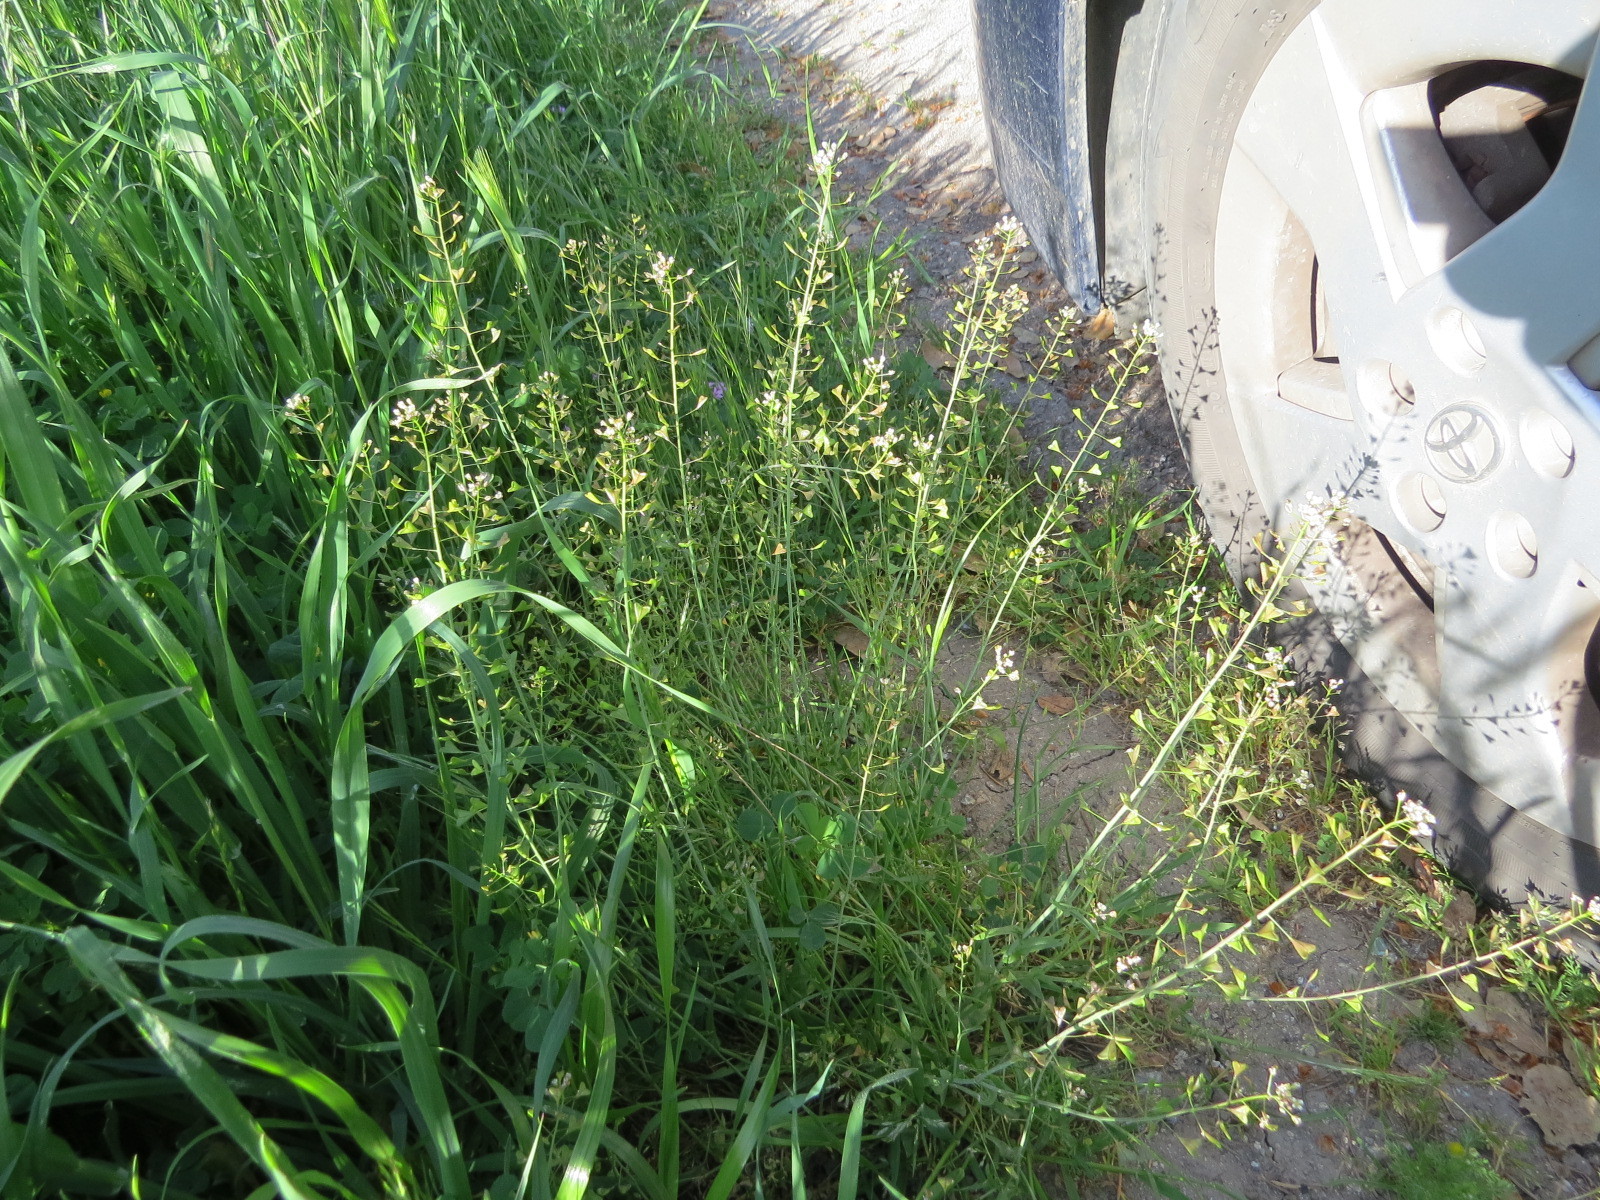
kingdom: Plantae
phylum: Tracheophyta
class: Magnoliopsida
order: Brassicales
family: Brassicaceae
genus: Capsella
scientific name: Capsella bursa-pastoris
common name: Shepherd's purse
